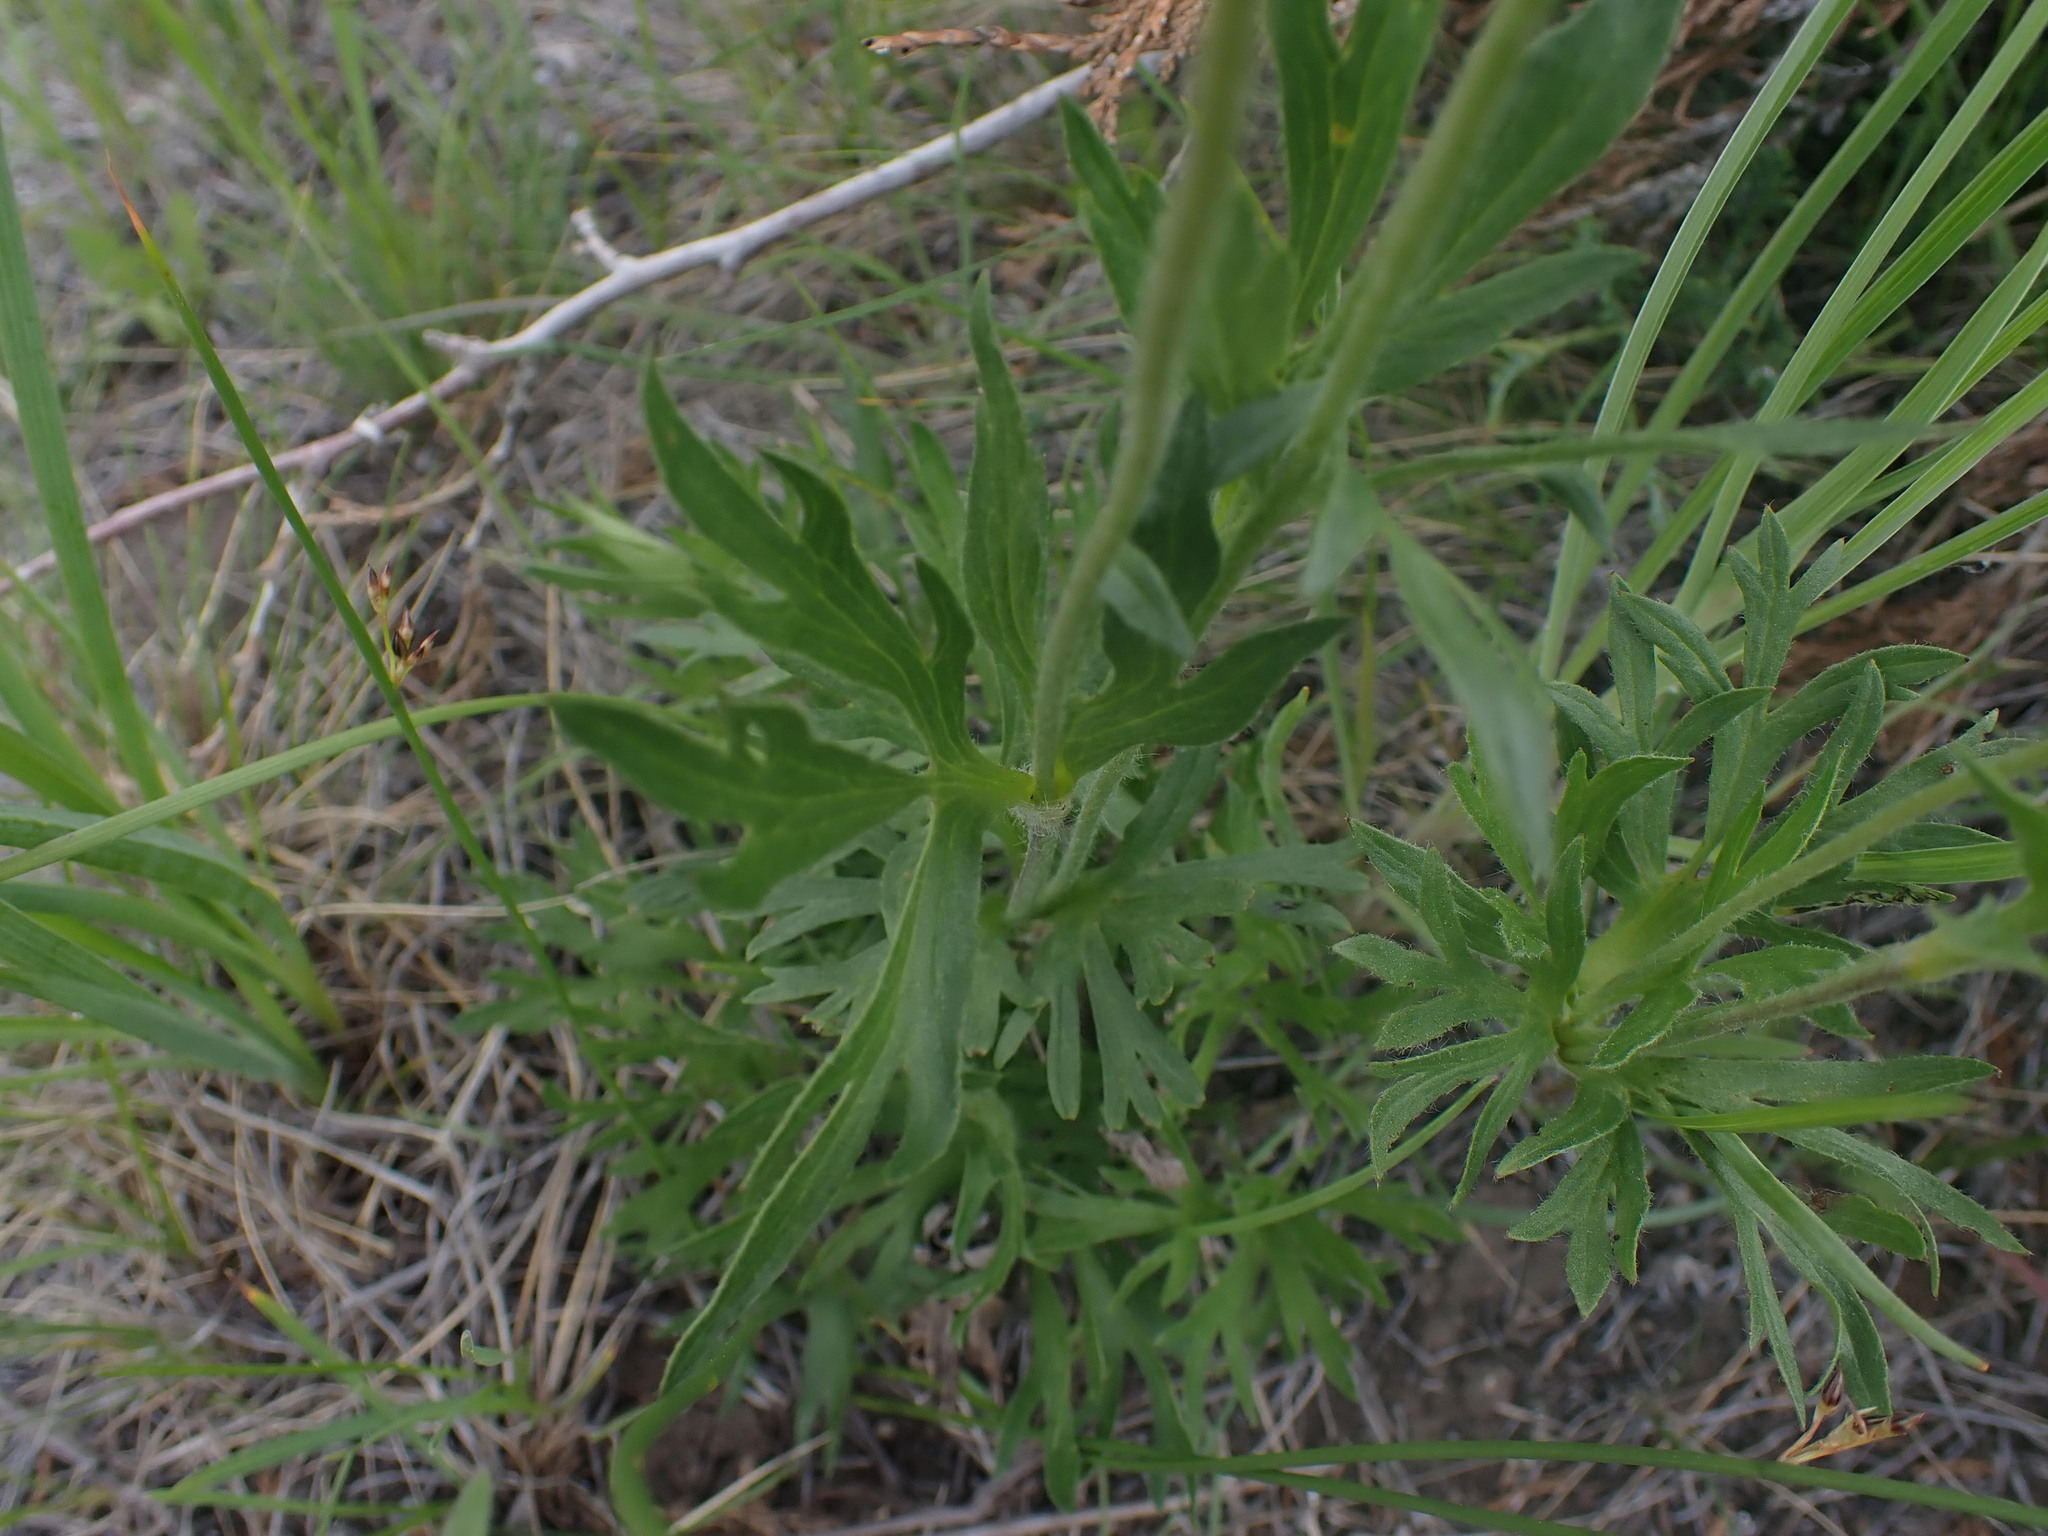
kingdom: Plantae
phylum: Tracheophyta
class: Magnoliopsida
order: Ranunculales
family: Ranunculaceae
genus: Anemone
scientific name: Anemone multifida
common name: Bird's-foot anemone
